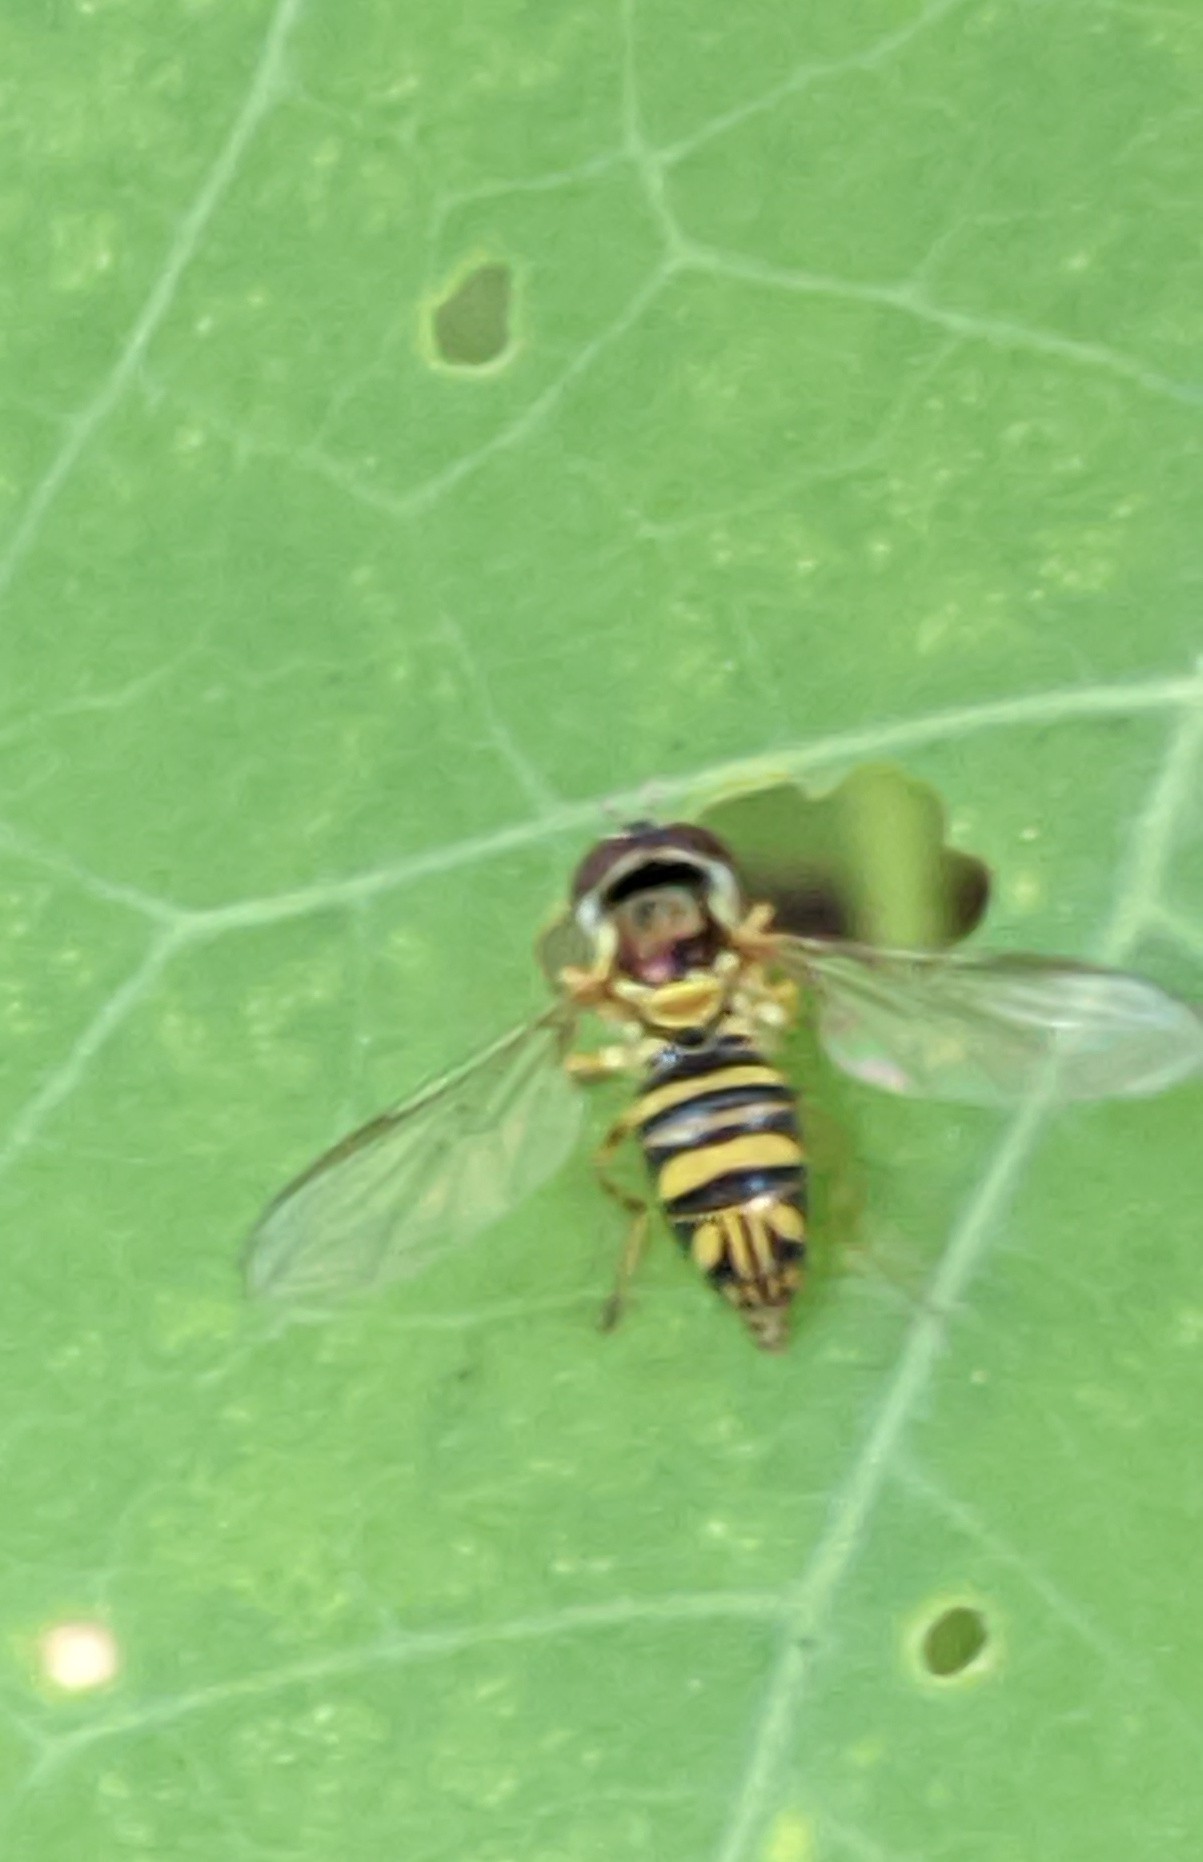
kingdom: Animalia
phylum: Arthropoda
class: Insecta
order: Diptera
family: Syrphidae
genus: Allograpta
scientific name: Allograpta obliqua
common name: Common oblique syrphid
